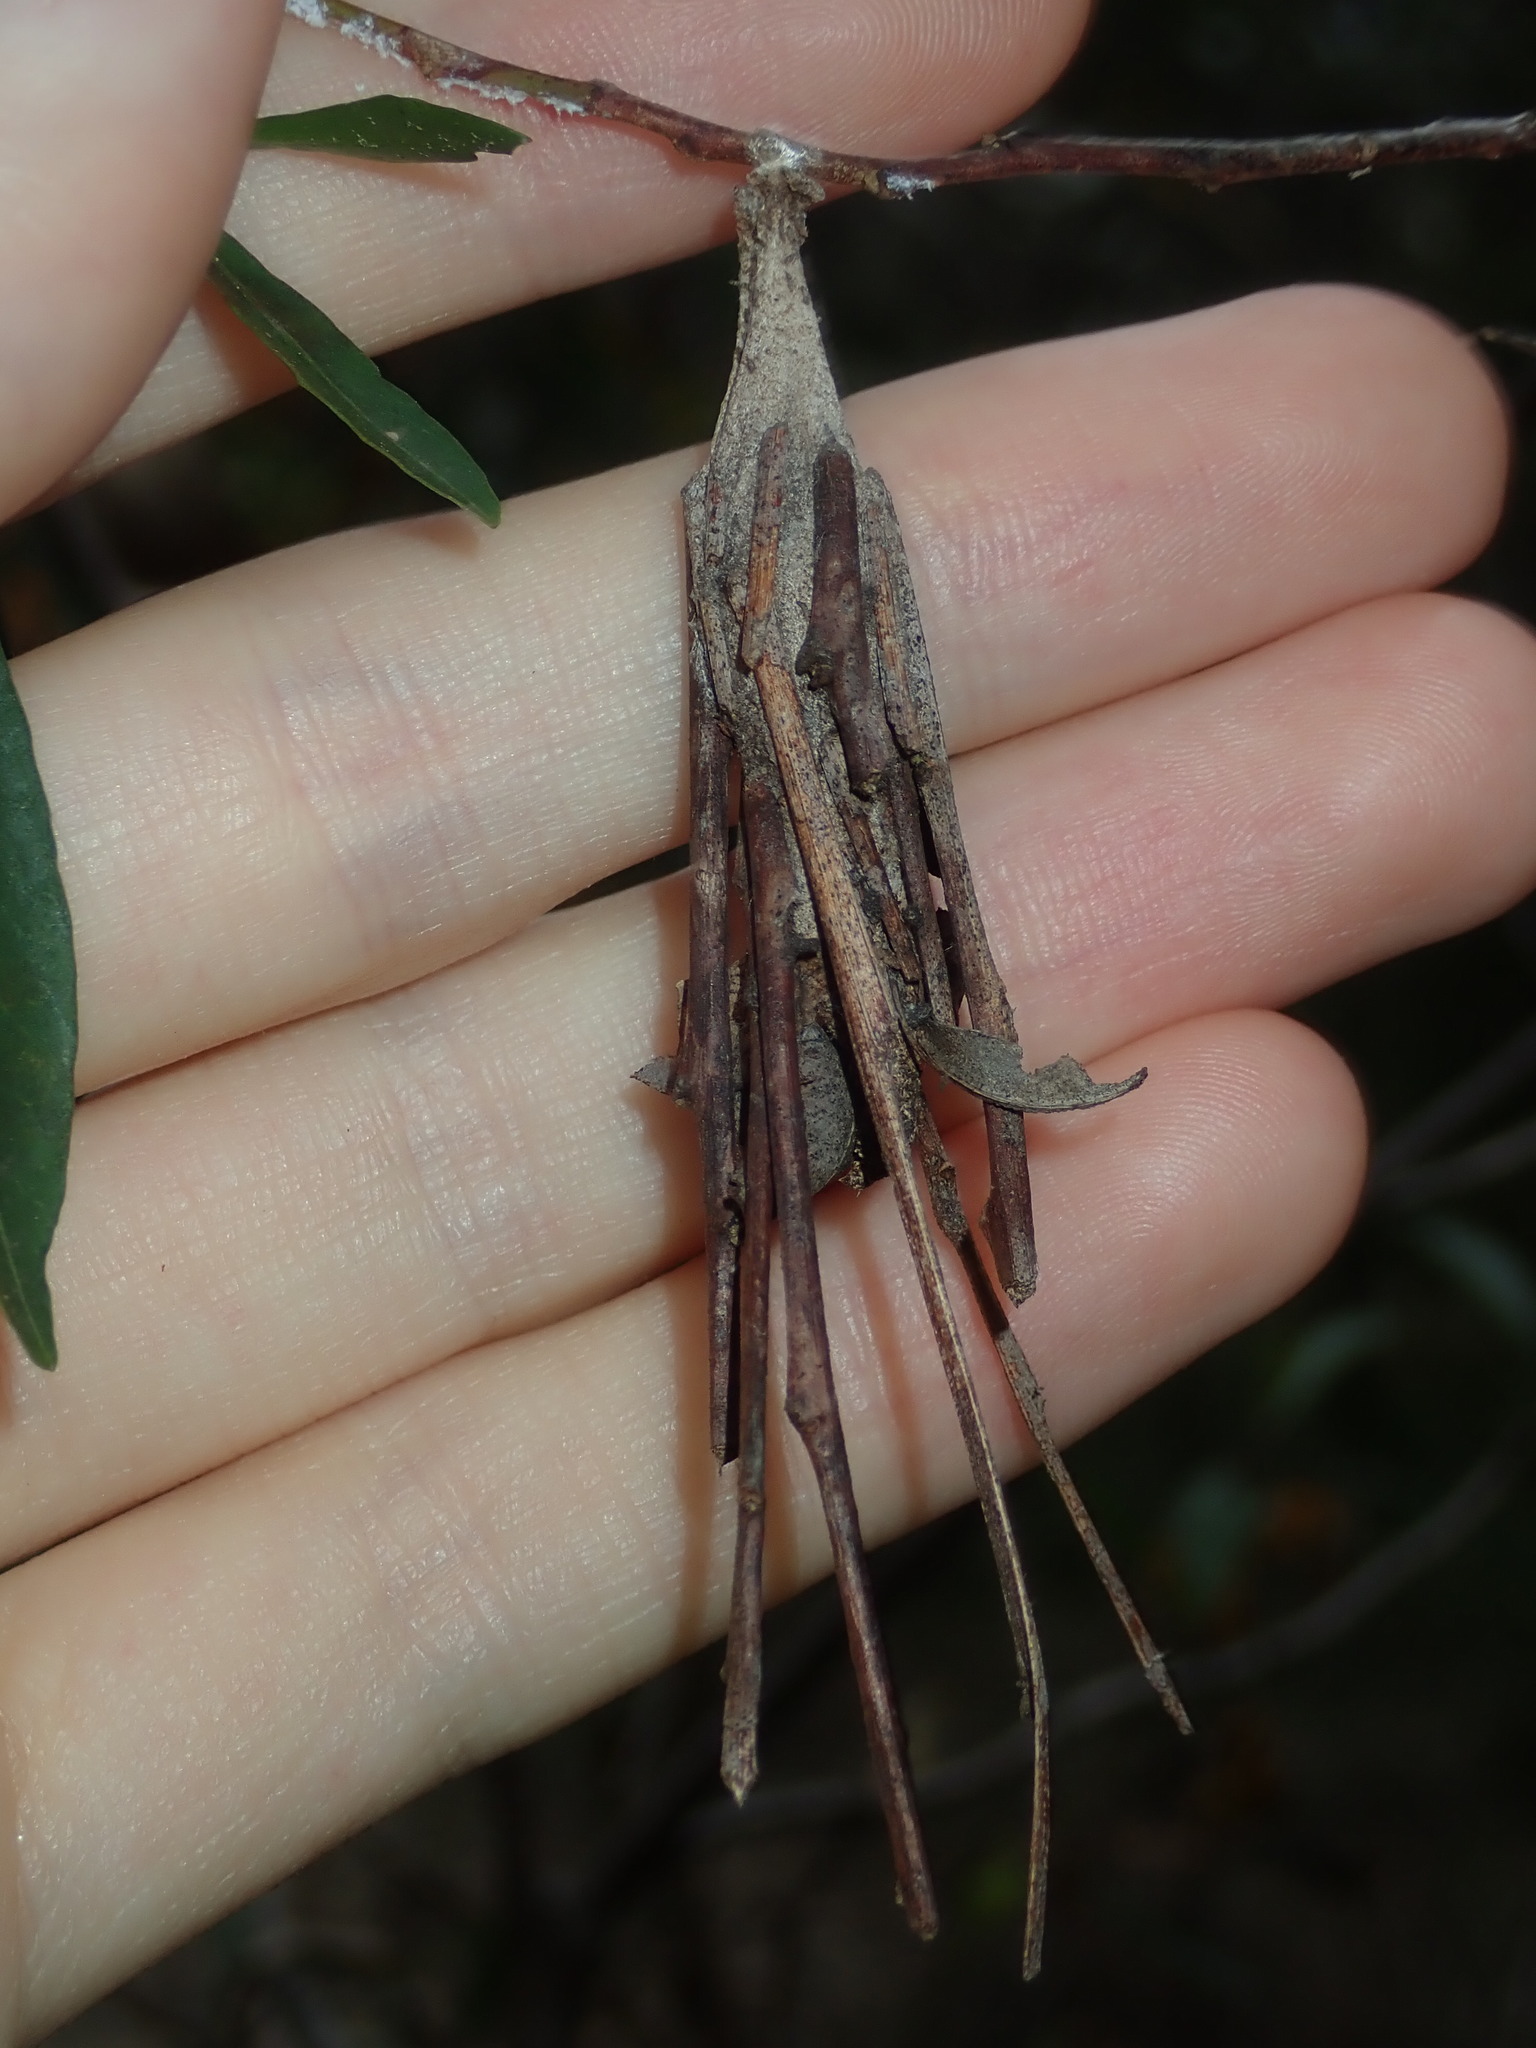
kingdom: Animalia
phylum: Arthropoda
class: Insecta
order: Lepidoptera
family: Psychidae
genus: Metura
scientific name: Metura elongatus
